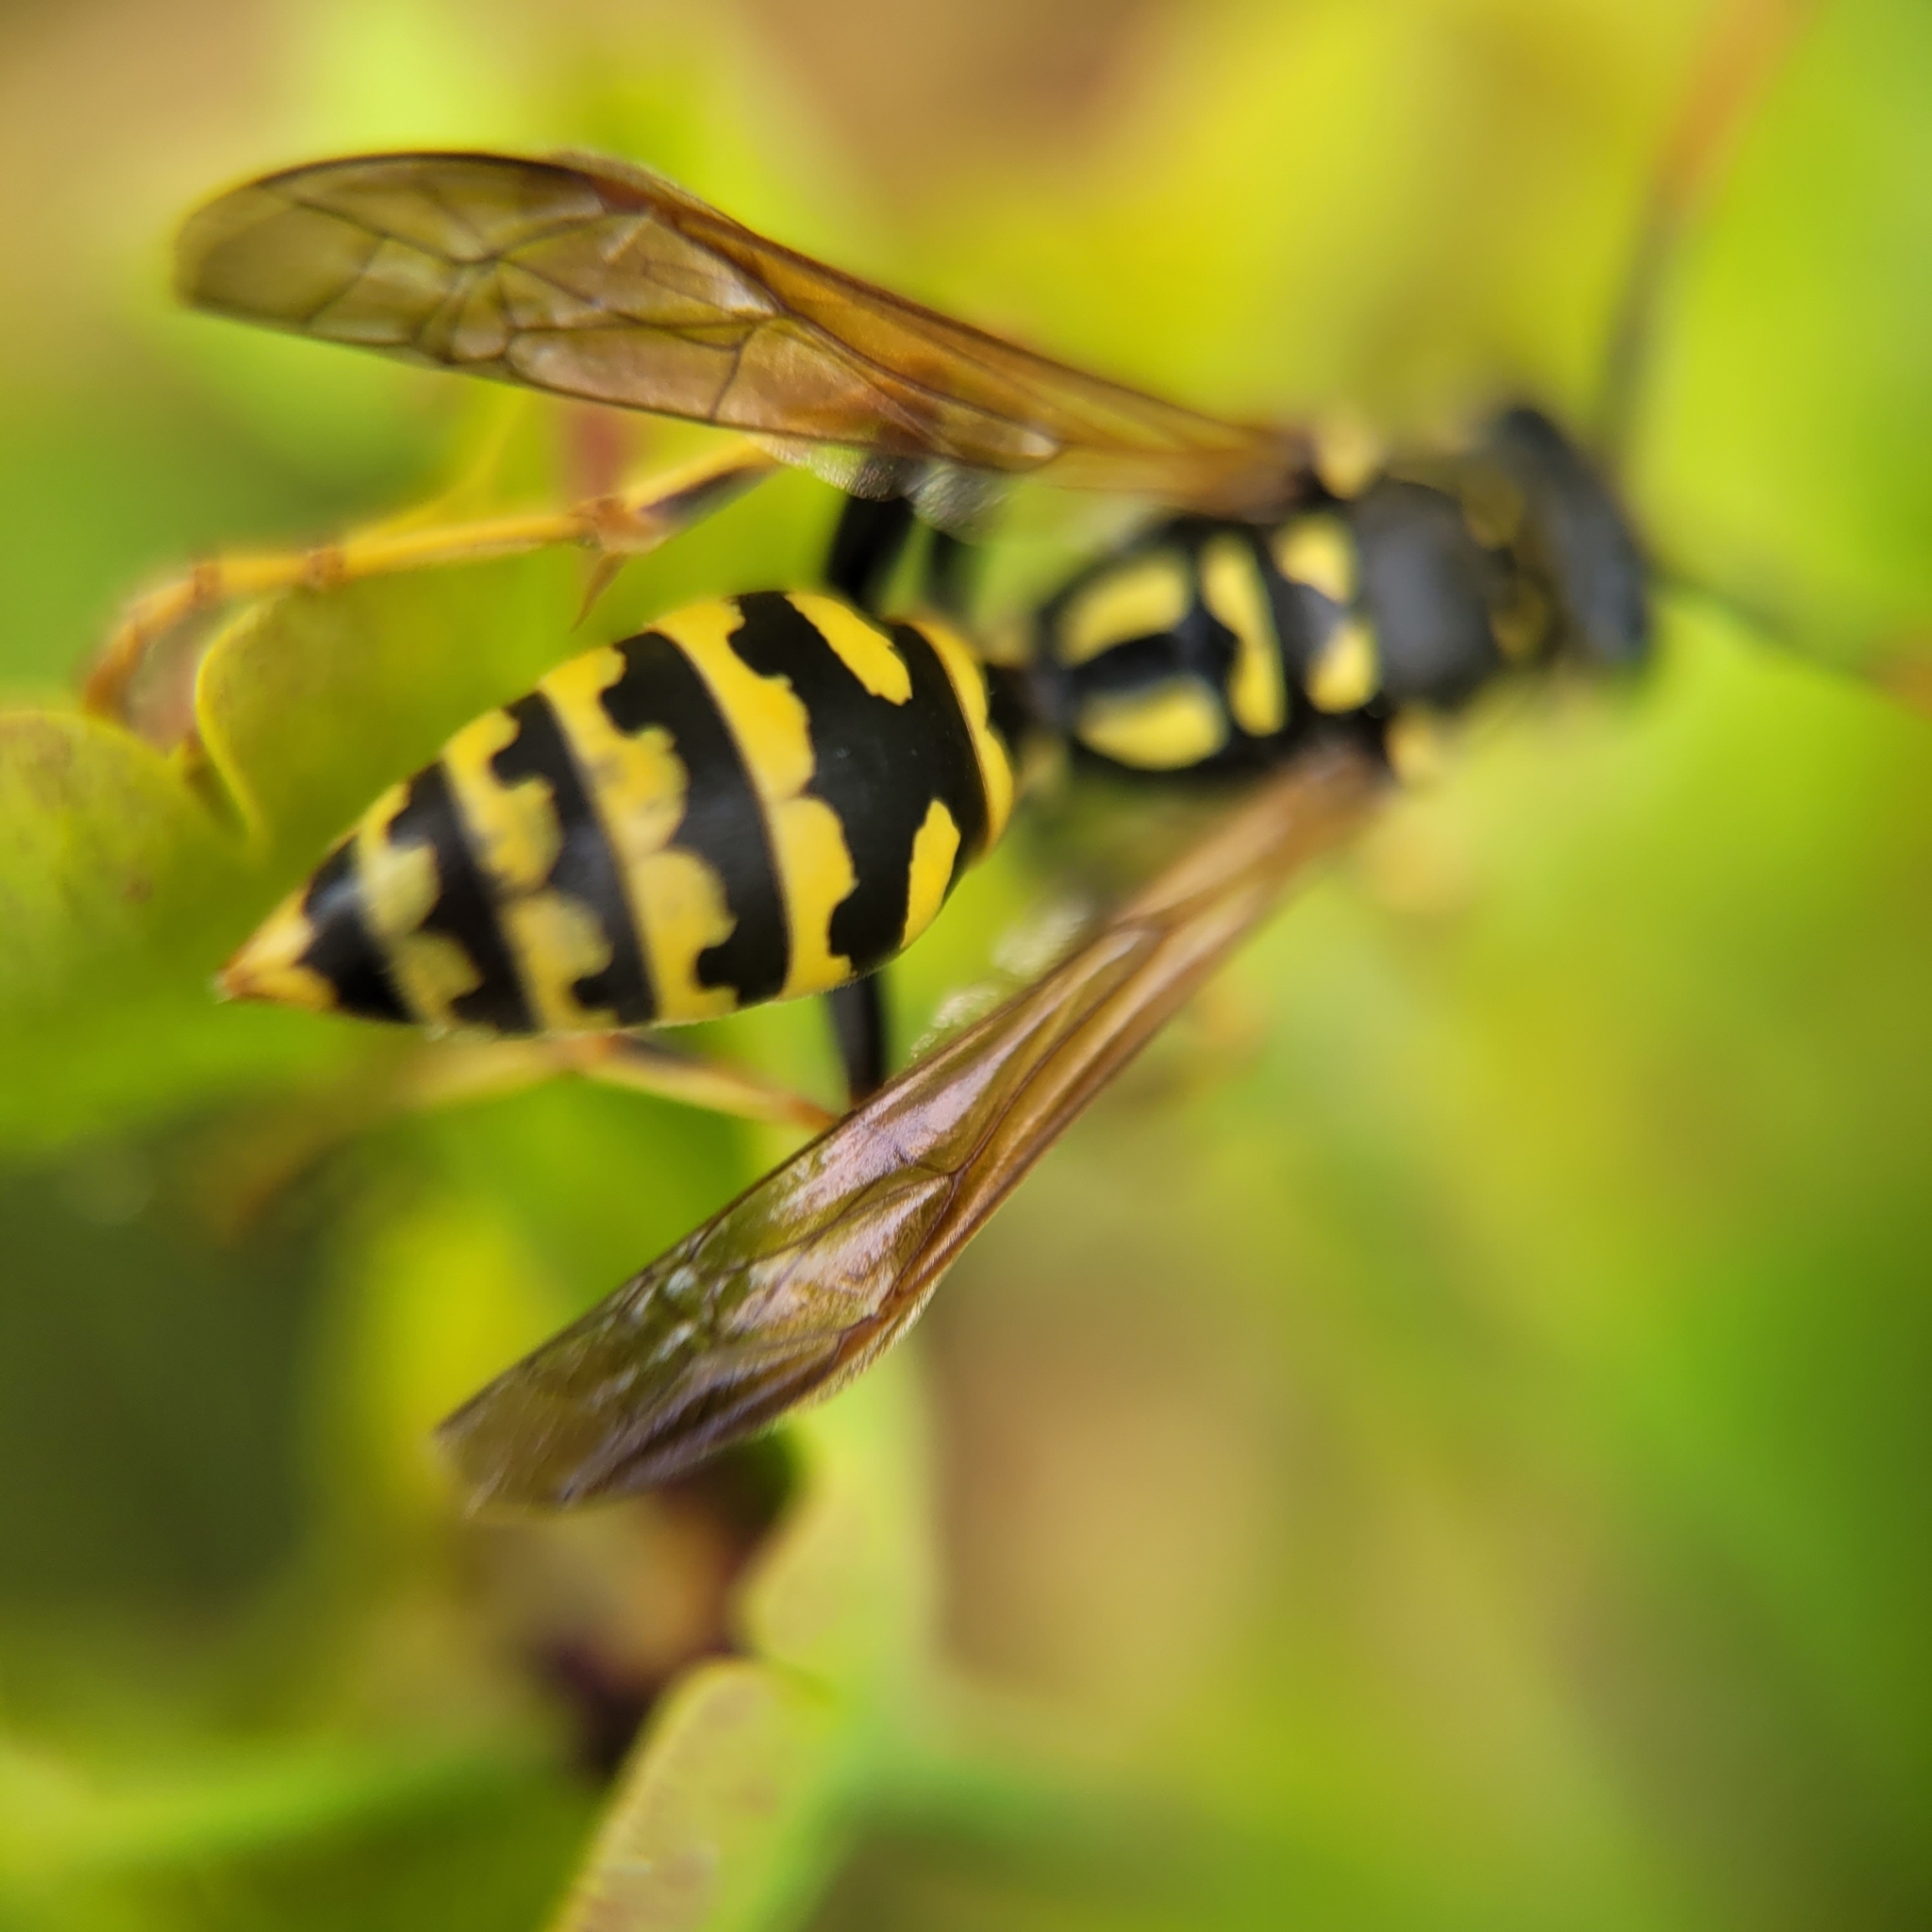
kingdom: Animalia
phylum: Arthropoda
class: Insecta
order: Hymenoptera
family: Eumenidae
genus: Polistes
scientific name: Polistes dominula
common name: Paper wasp
